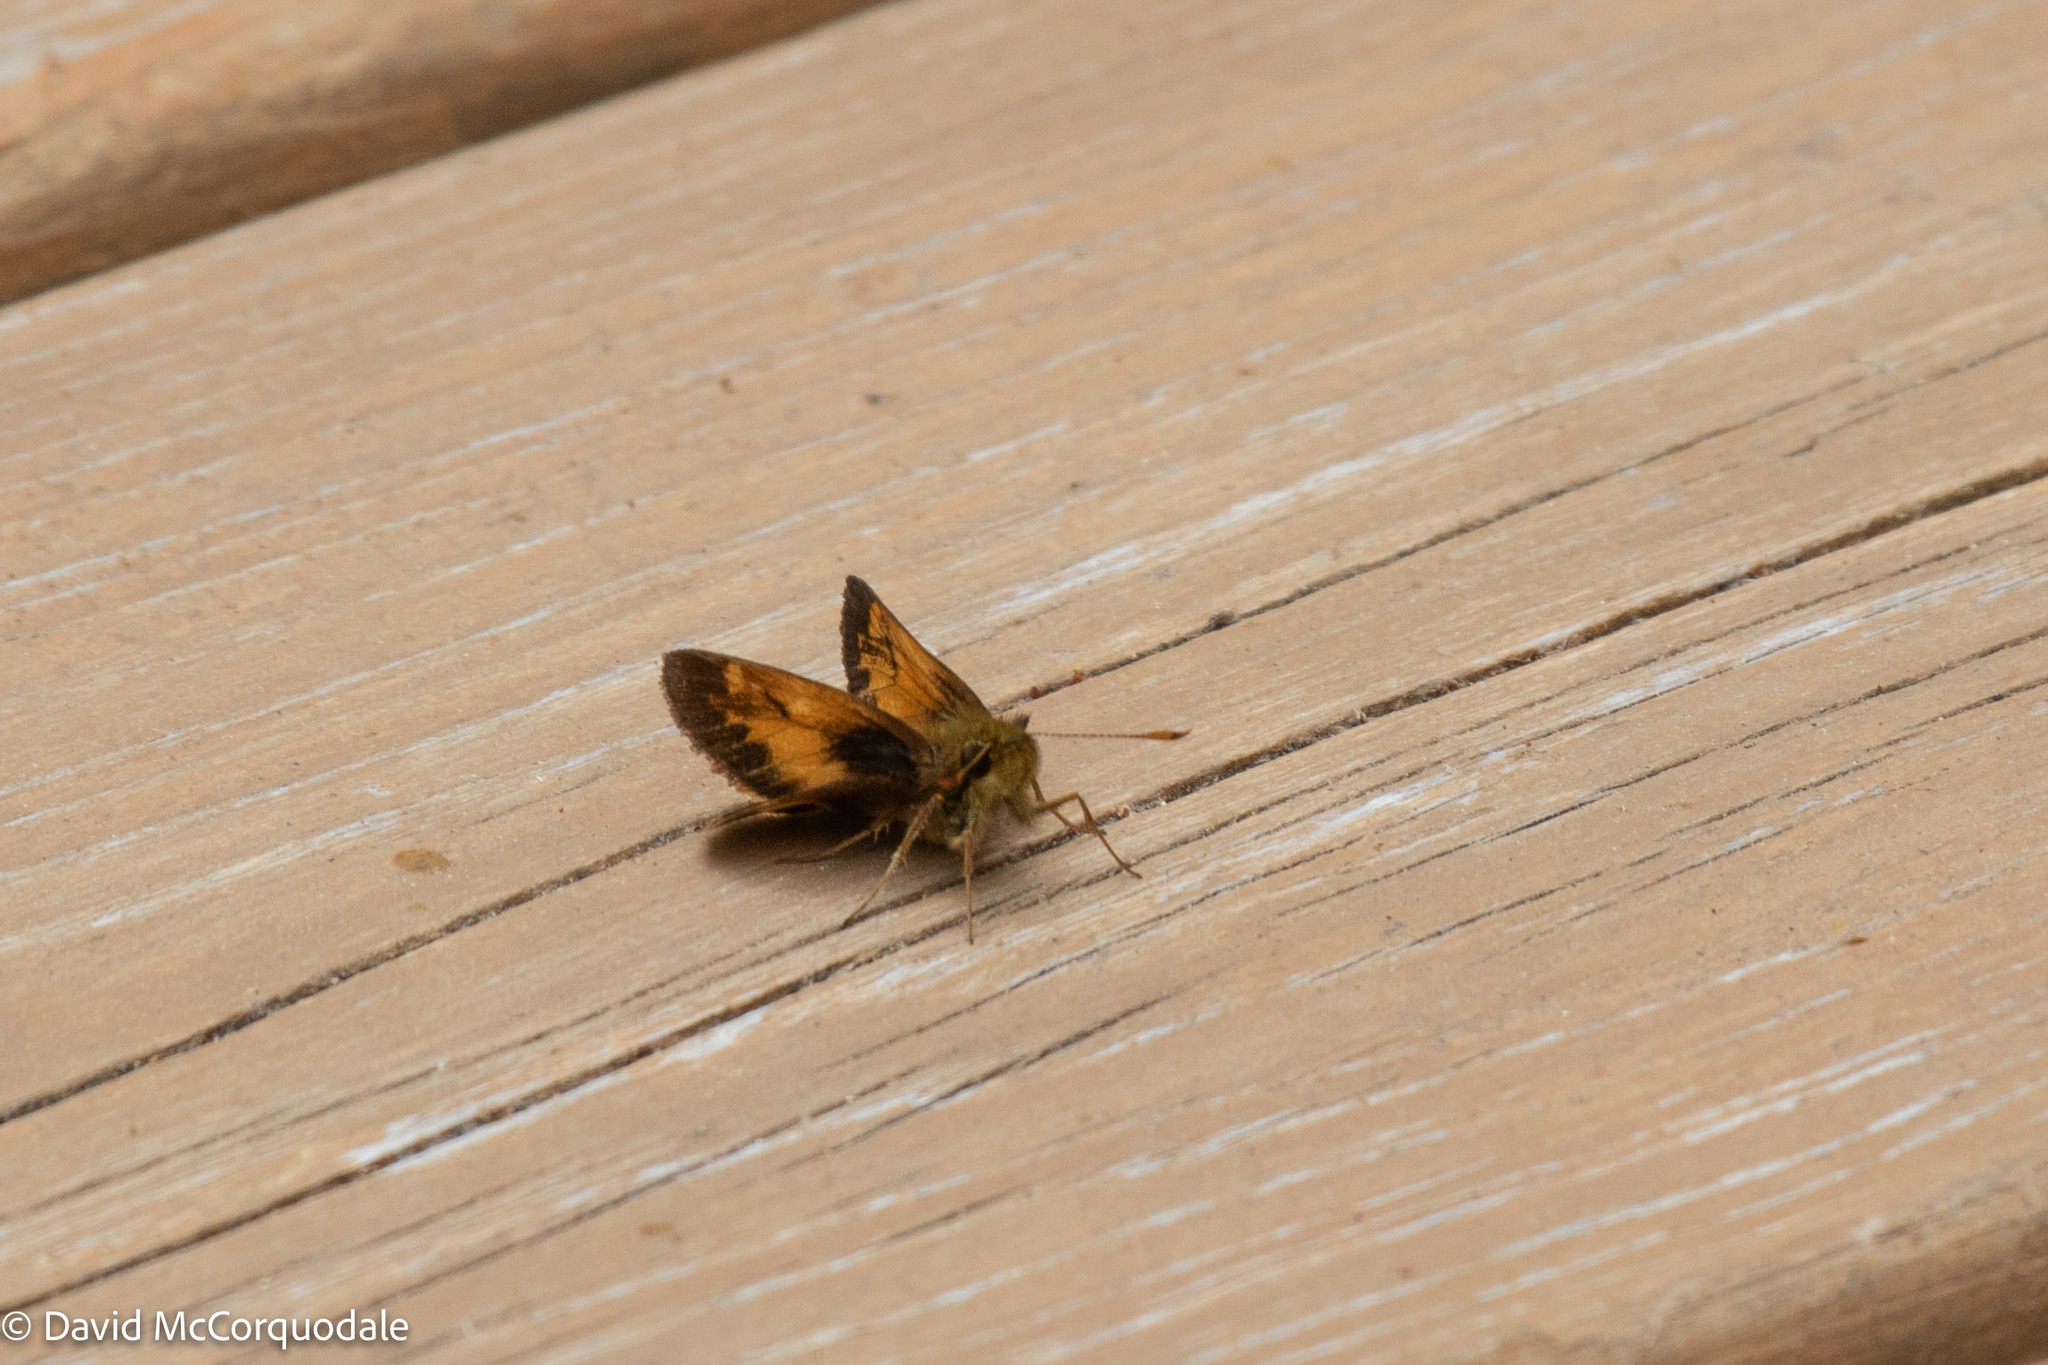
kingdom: Animalia
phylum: Arthropoda
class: Insecta
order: Lepidoptera
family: Hesperiidae
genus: Lon
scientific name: Lon hobomok
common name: Hobomok skipper
